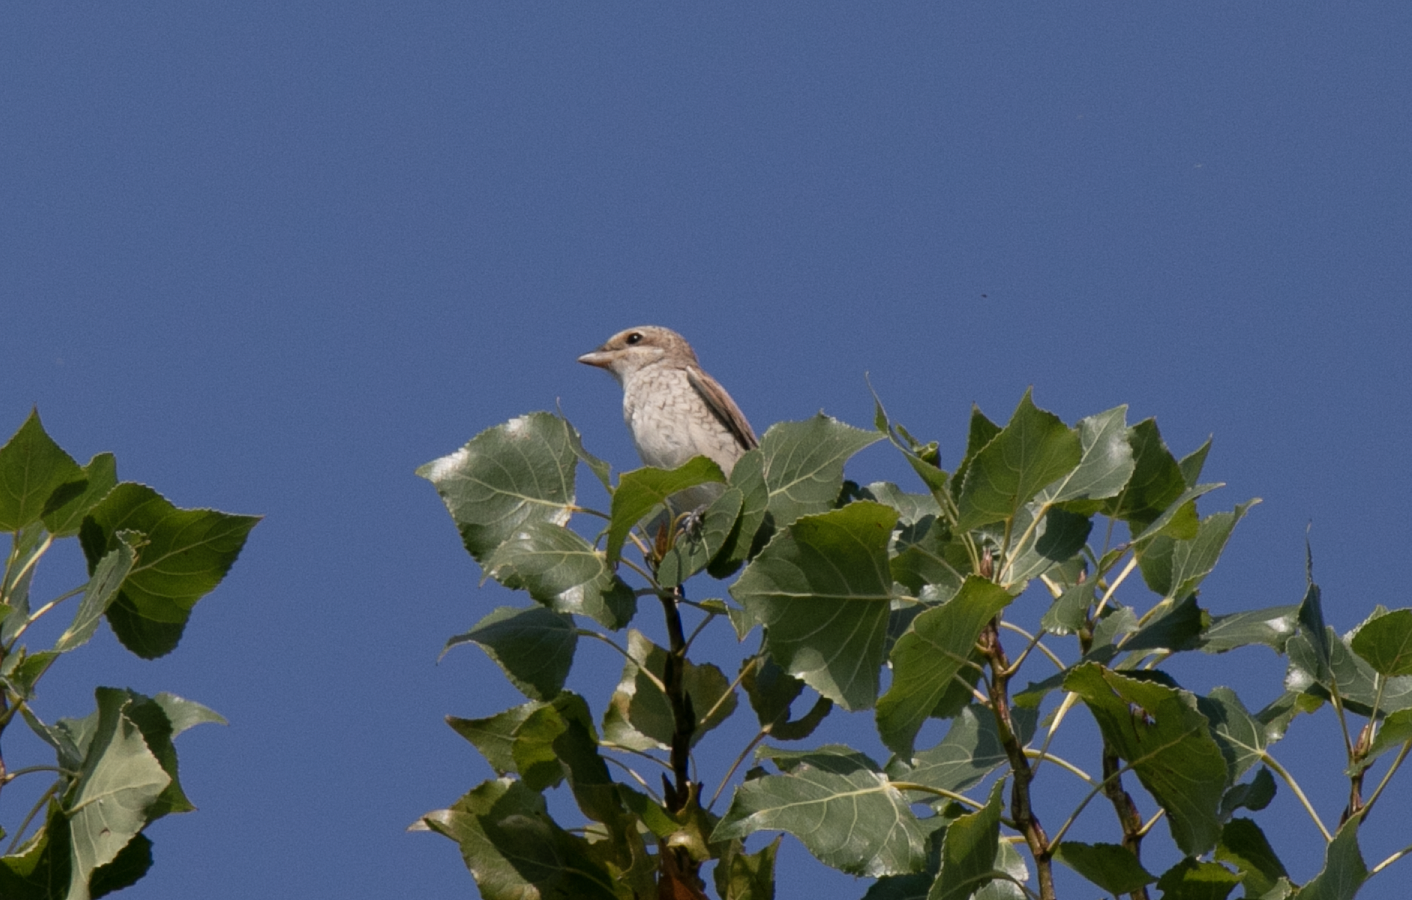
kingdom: Animalia
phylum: Chordata
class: Aves
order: Passeriformes
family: Laniidae
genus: Lanius
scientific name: Lanius collurio
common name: Red-backed shrike
